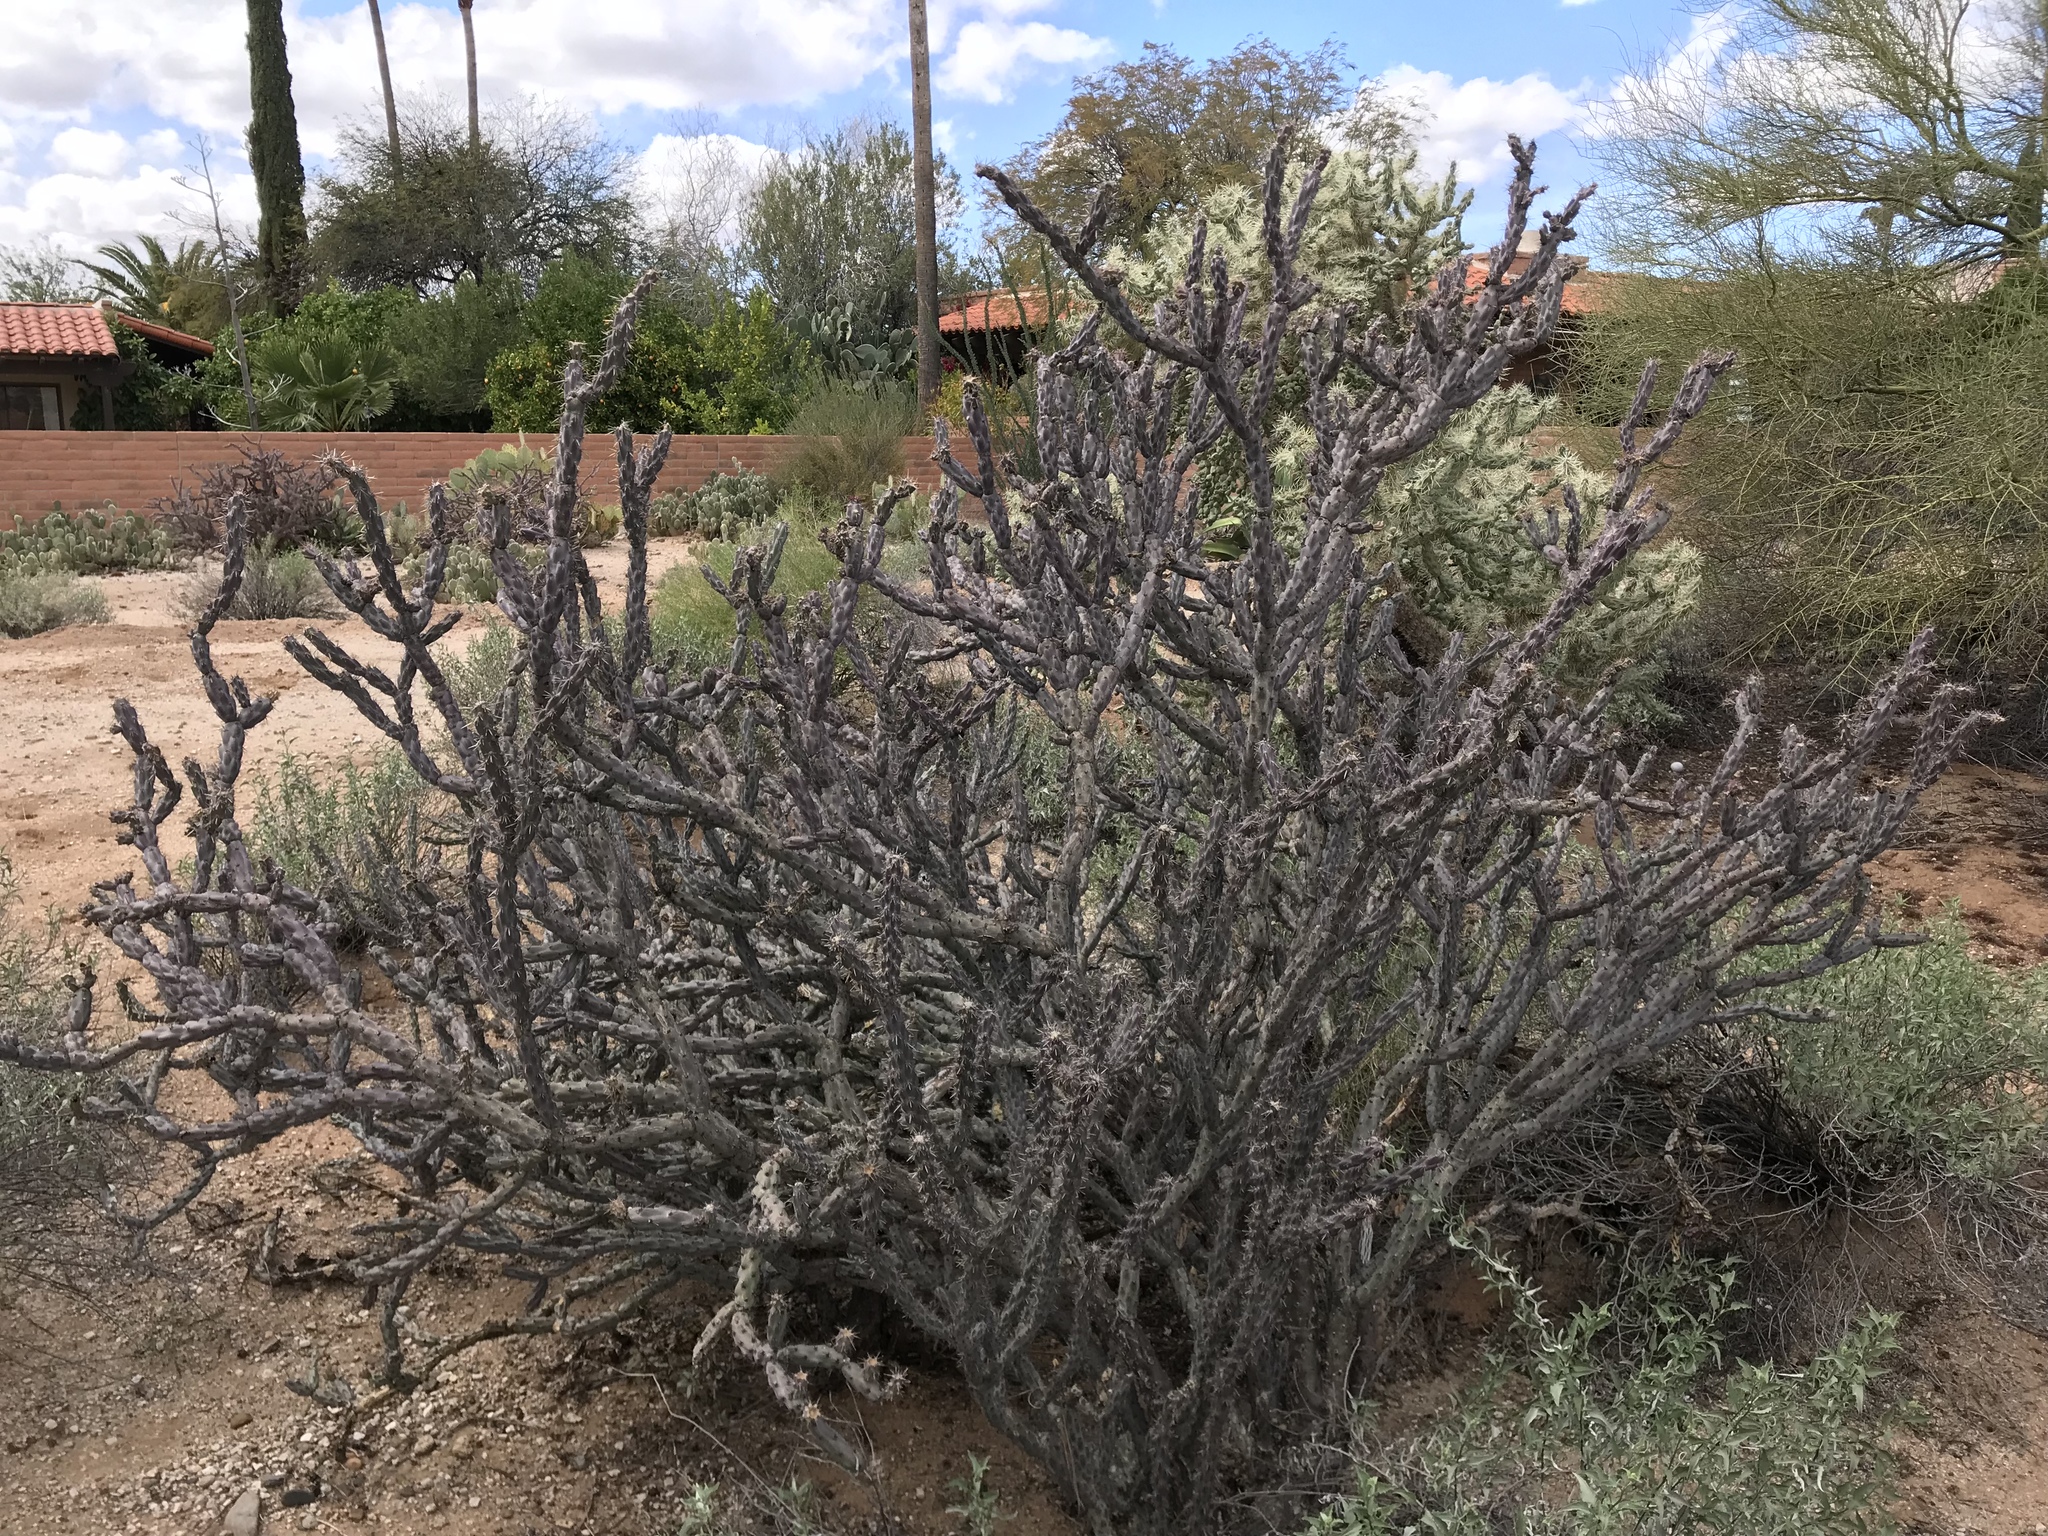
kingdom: Plantae
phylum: Tracheophyta
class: Magnoliopsida
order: Caryophyllales
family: Cactaceae
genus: Cylindropuntia
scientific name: Cylindropuntia acanthocarpa
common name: Buckhorn cholla
